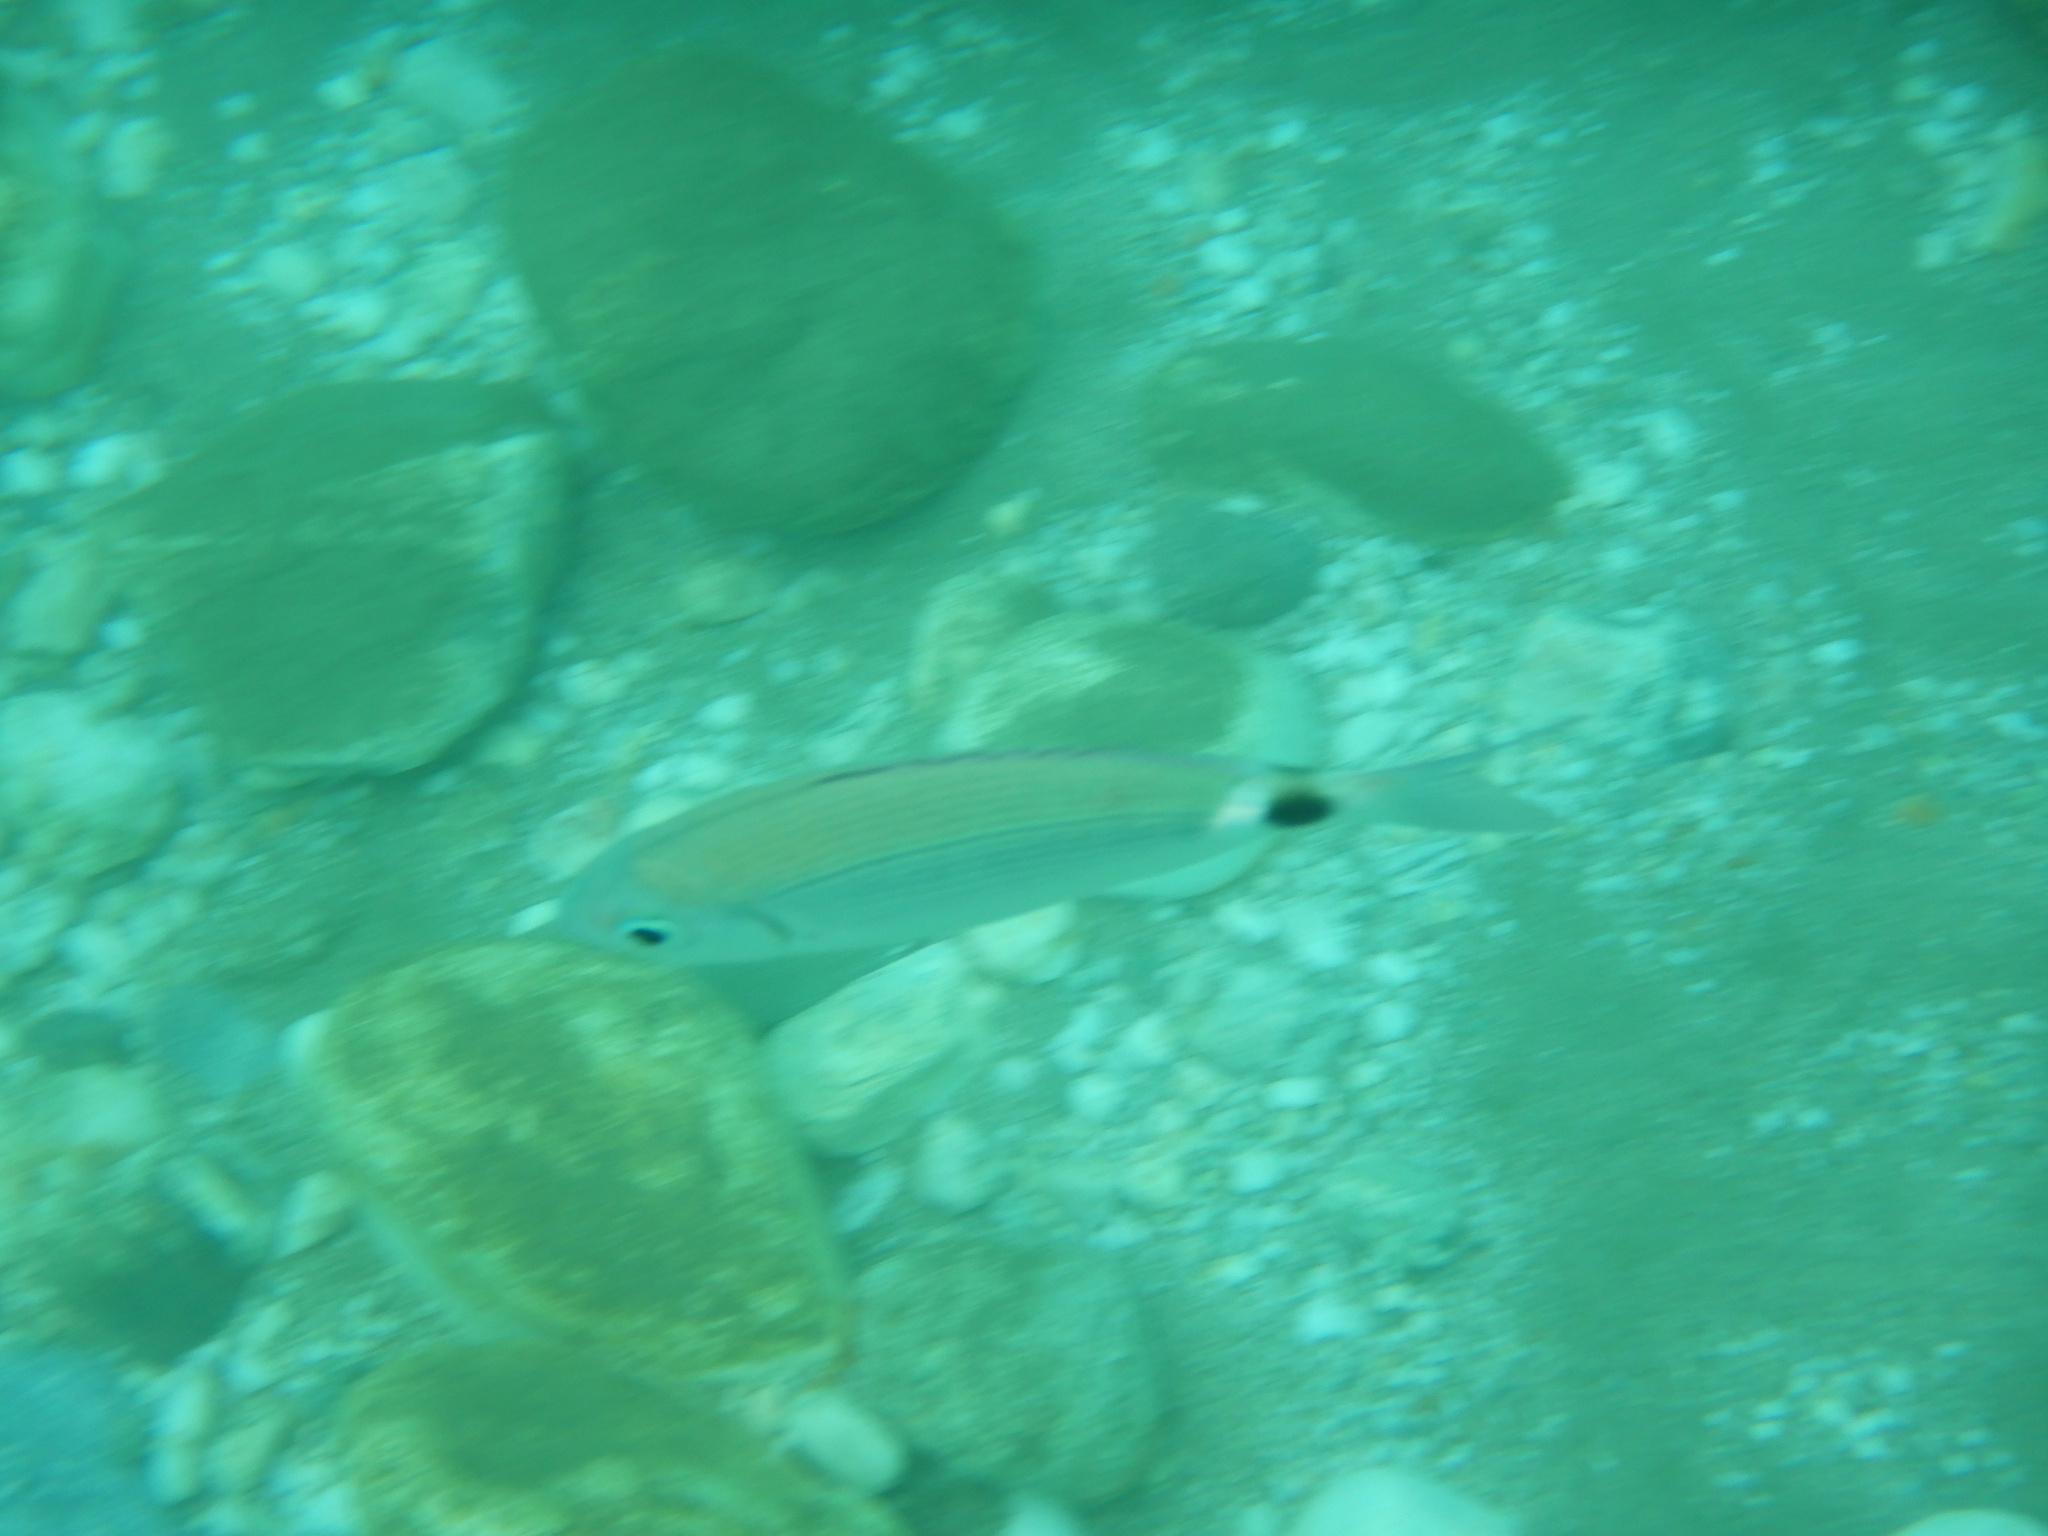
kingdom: Animalia
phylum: Chordata
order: Perciformes
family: Sparidae
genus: Oblada
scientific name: Oblada melanura
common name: Saddled seabream
